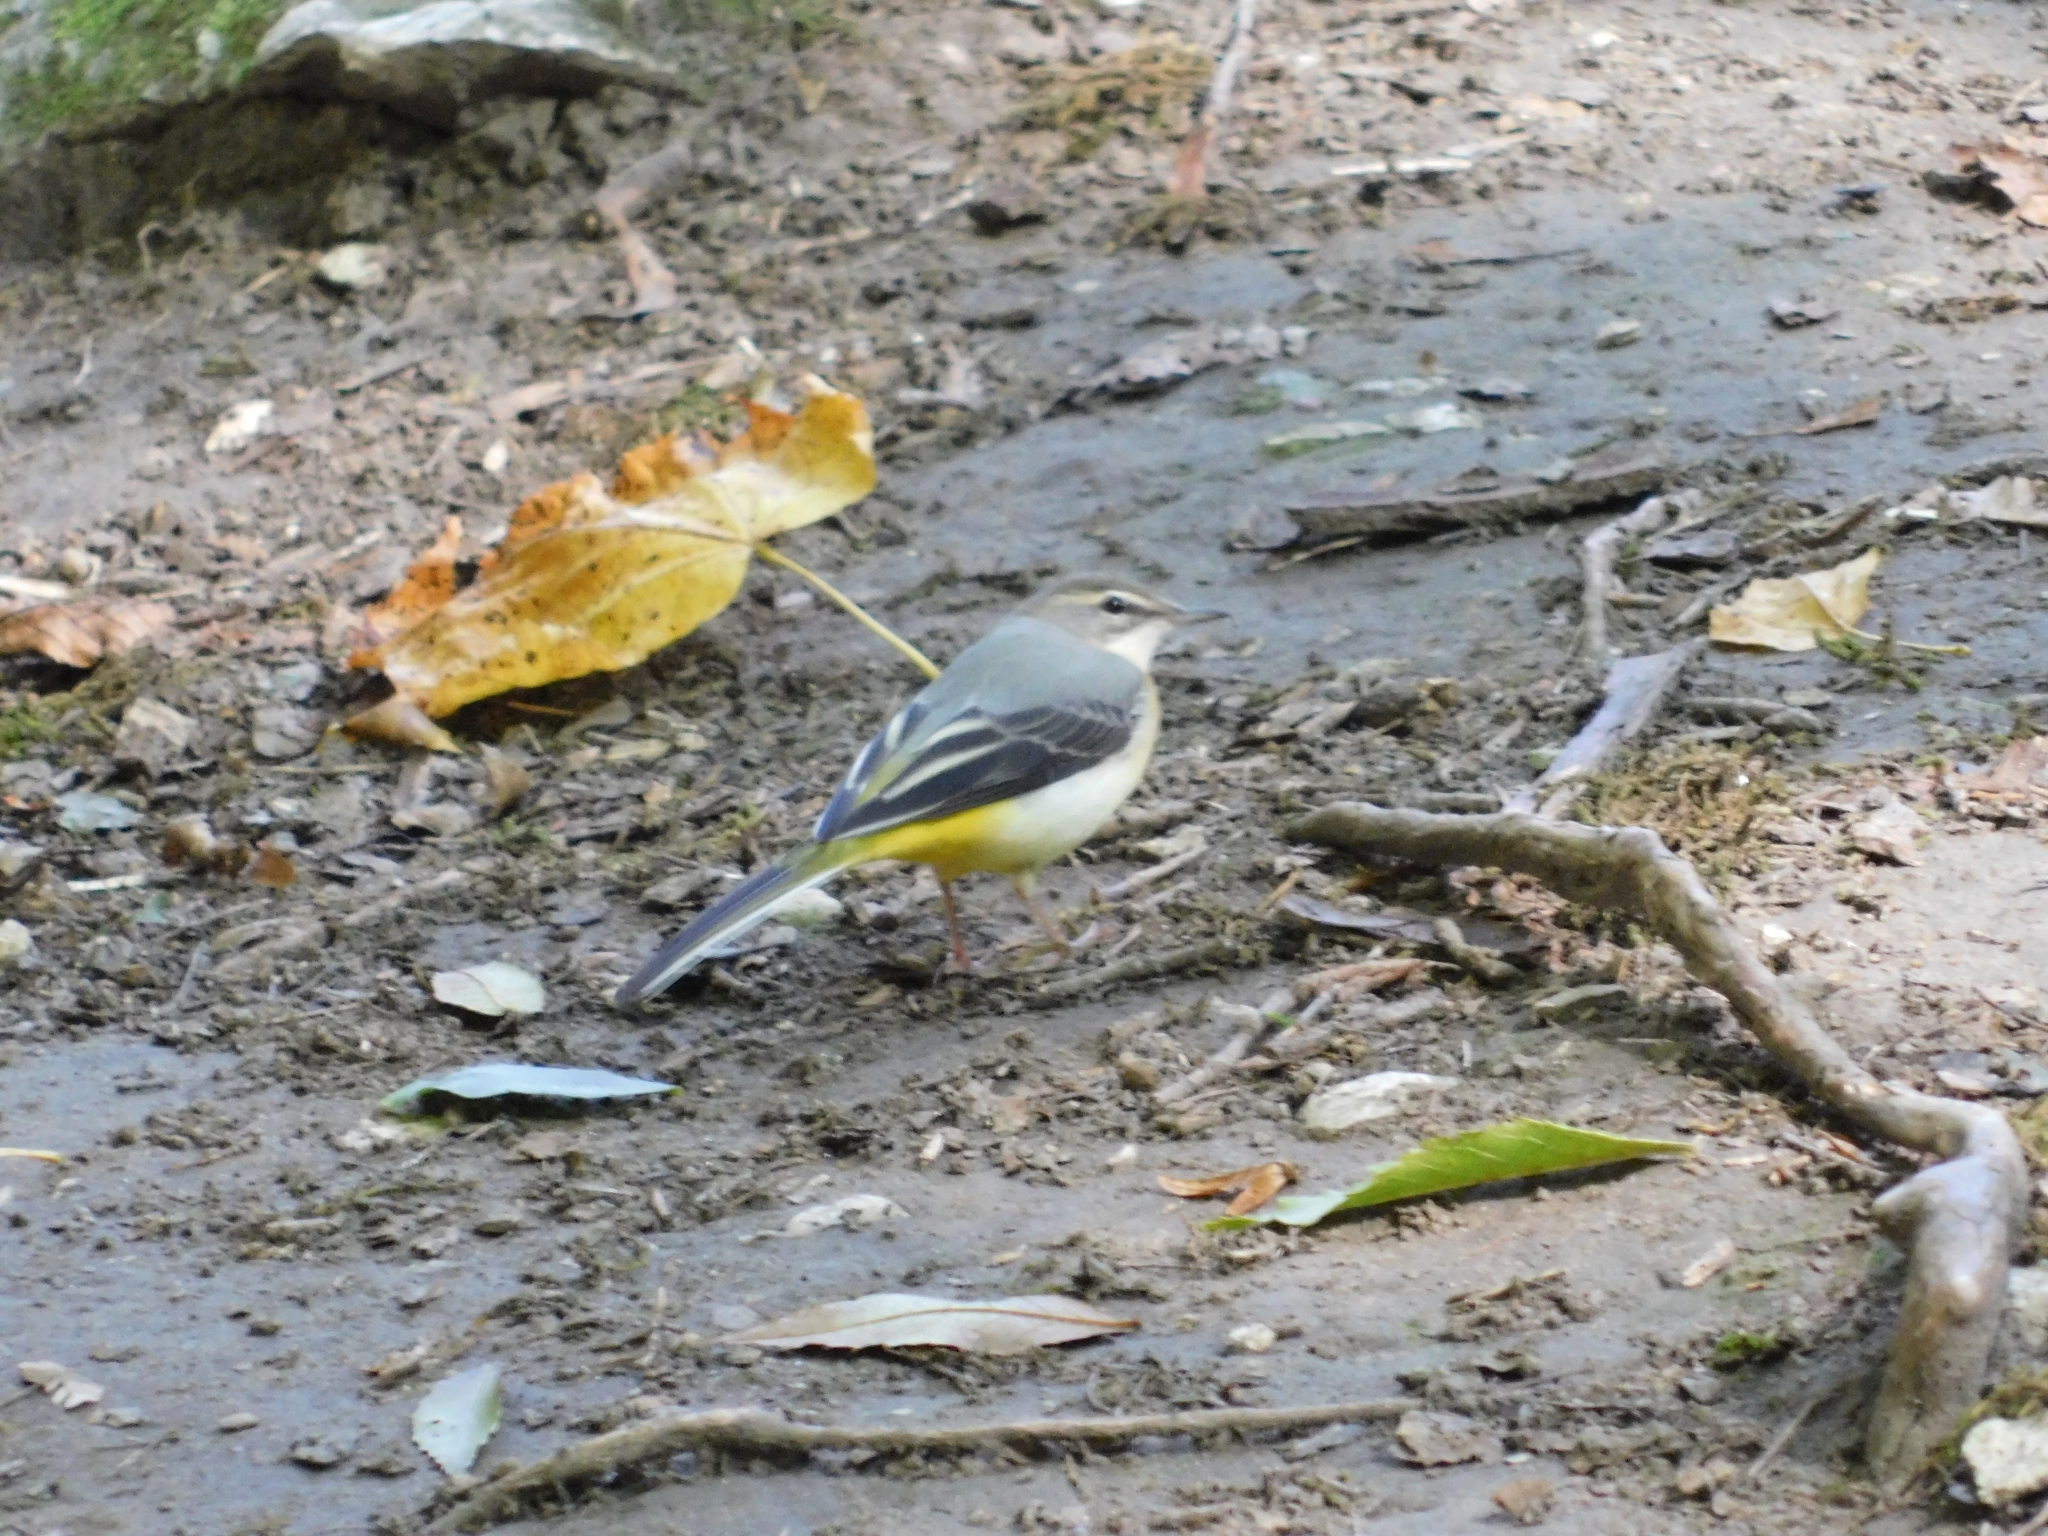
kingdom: Animalia
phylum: Chordata
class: Aves
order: Passeriformes
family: Motacillidae
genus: Motacilla
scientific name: Motacilla cinerea
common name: Grey wagtail
